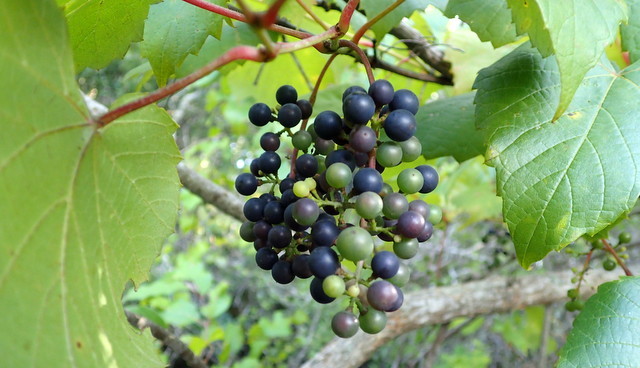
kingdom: Plantae
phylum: Tracheophyta
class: Magnoliopsida
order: Vitales
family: Vitaceae
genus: Vitis
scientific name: Vitis vulpina
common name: Frost grape
